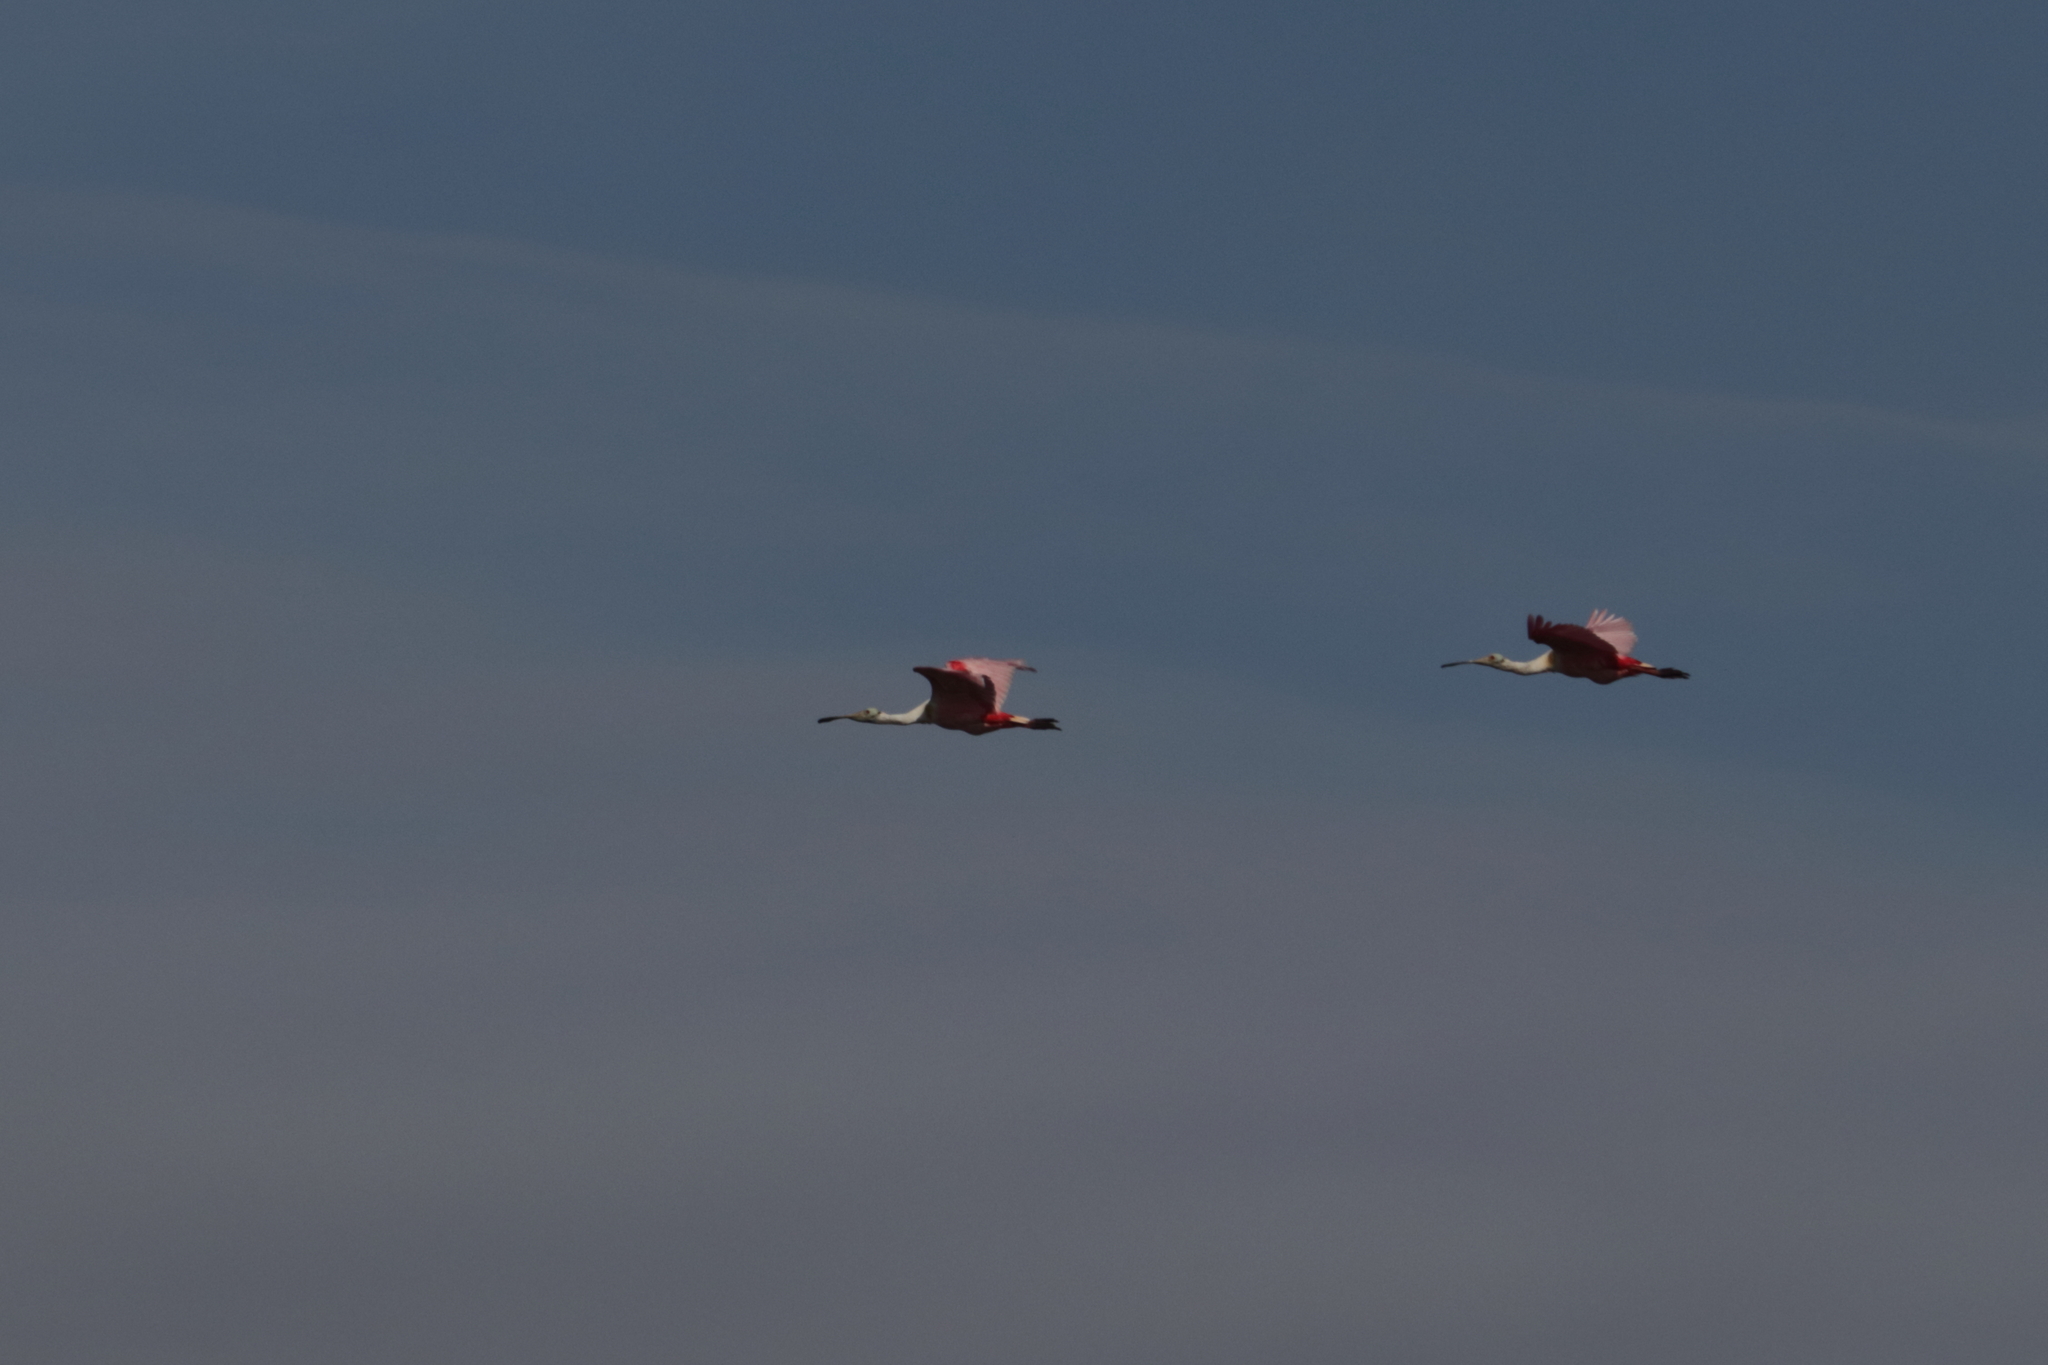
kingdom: Animalia
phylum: Chordata
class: Aves
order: Pelecaniformes
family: Threskiornithidae
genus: Platalea
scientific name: Platalea ajaja
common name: Roseate spoonbill
